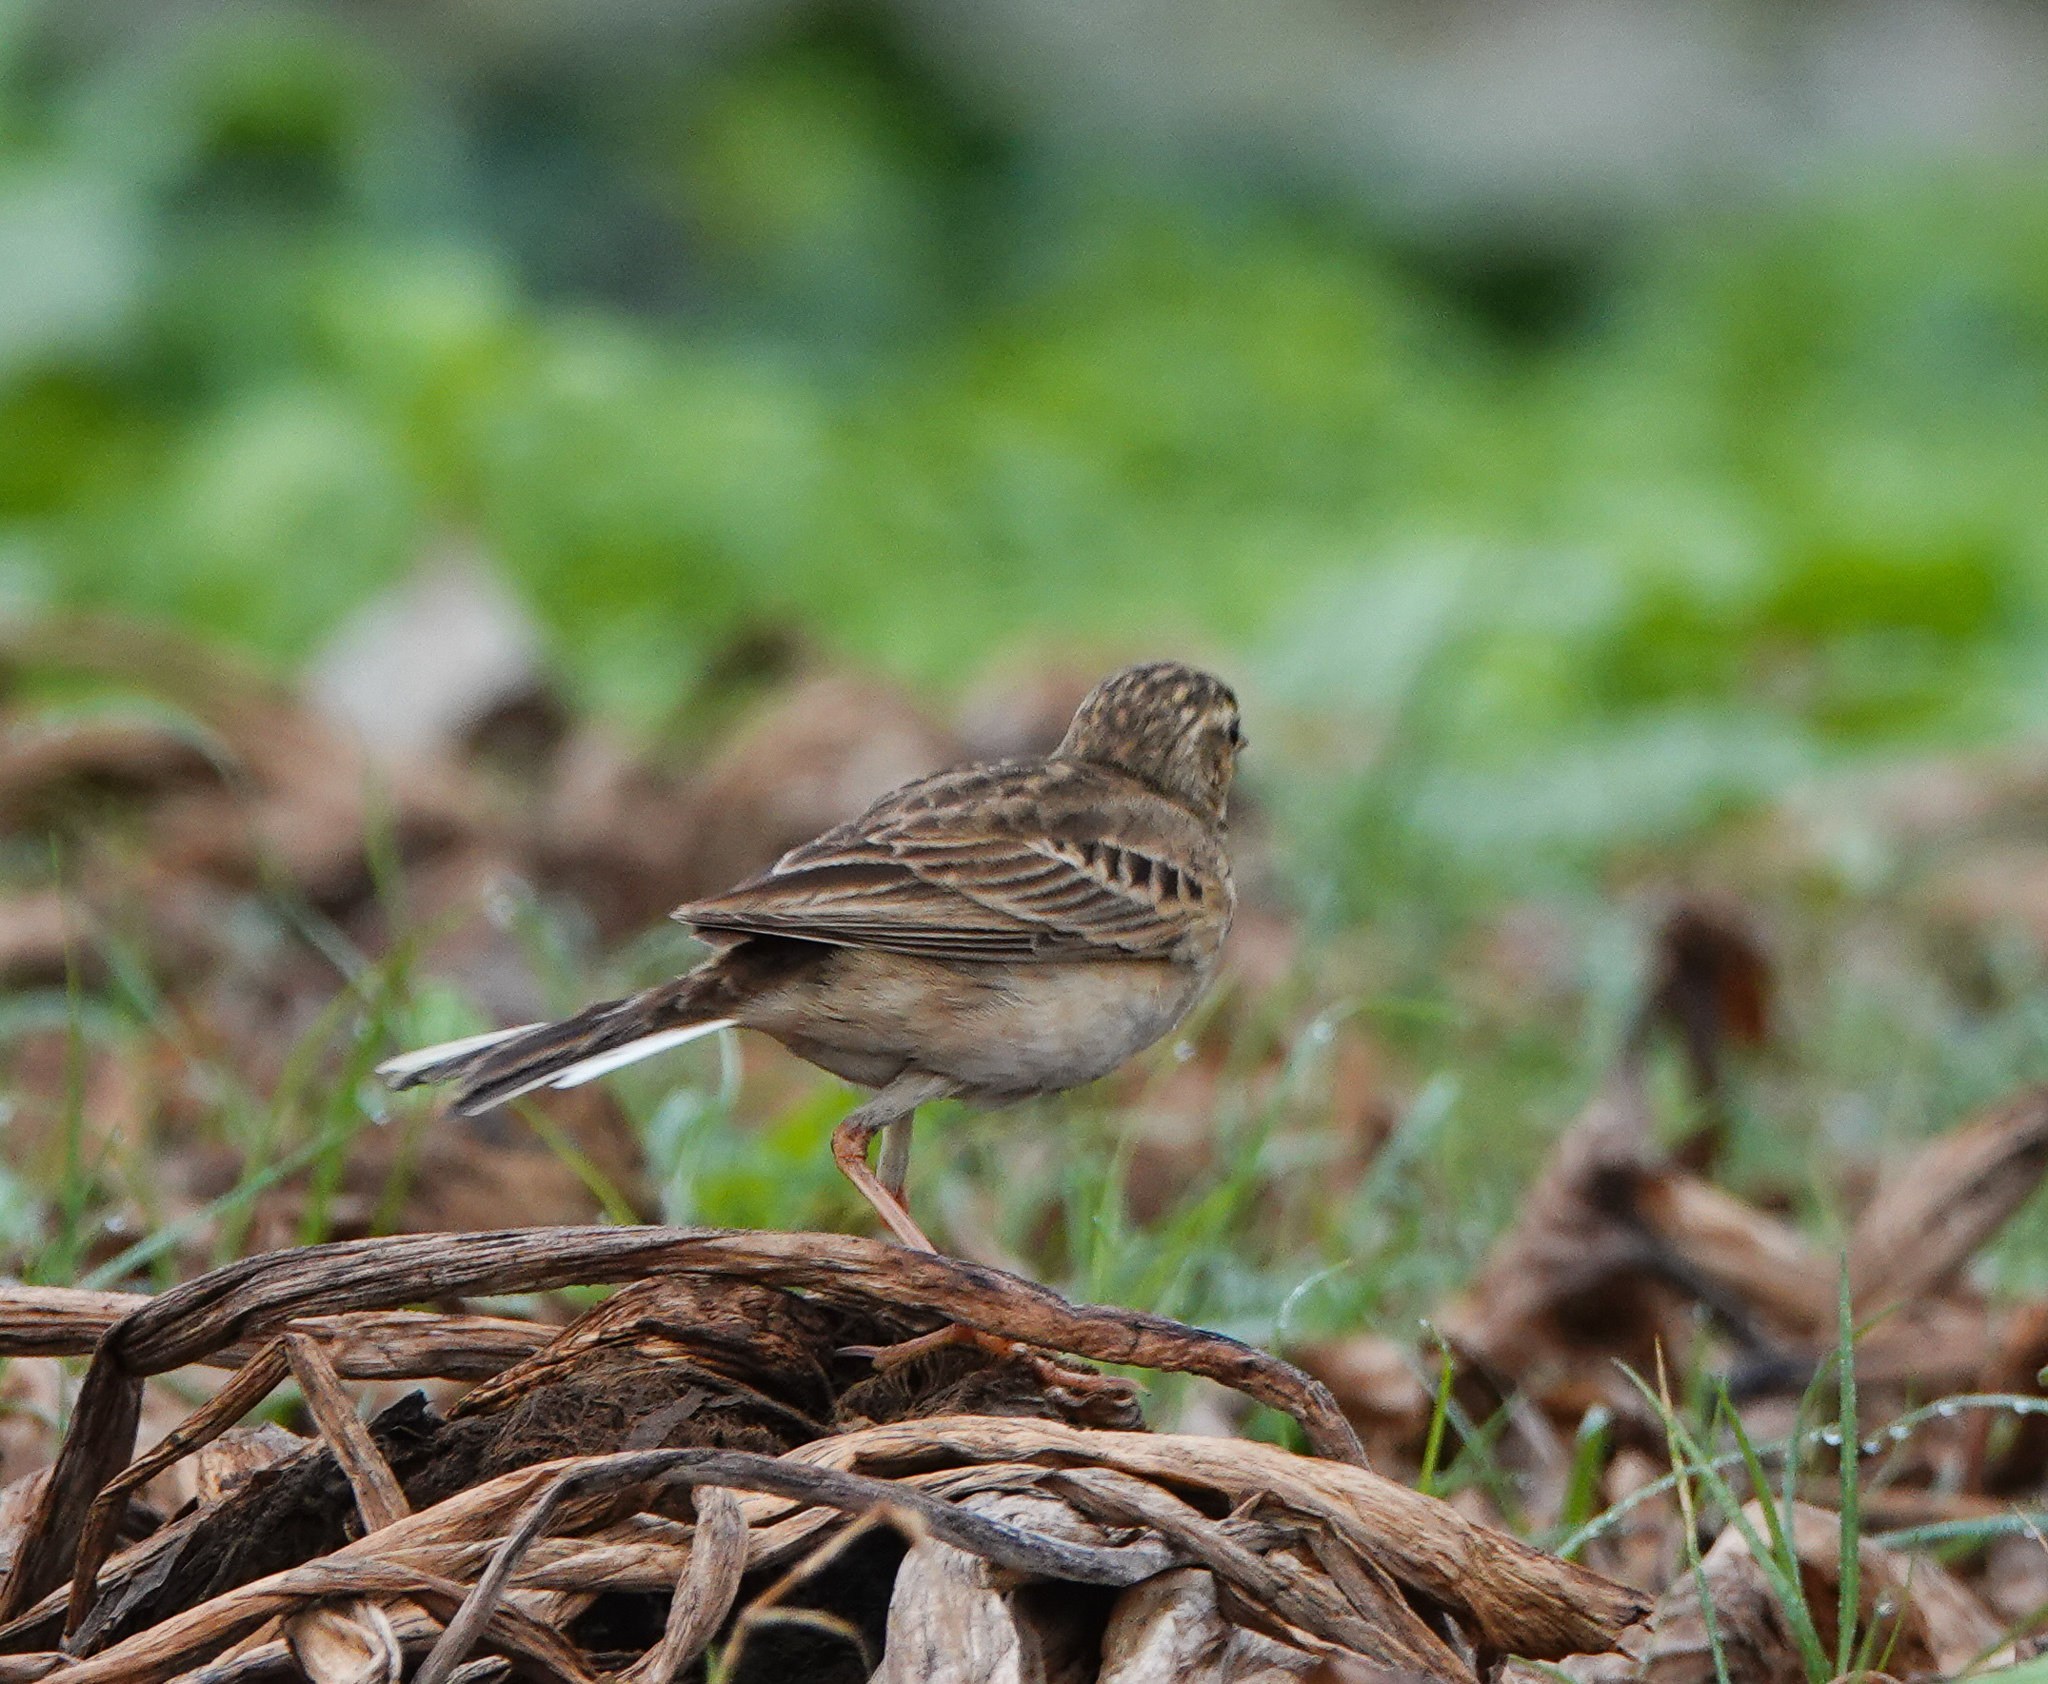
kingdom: Animalia
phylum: Chordata
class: Aves
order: Passeriformes
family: Motacillidae
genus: Anthus
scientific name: Anthus rufulus
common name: Paddyfield pipit
